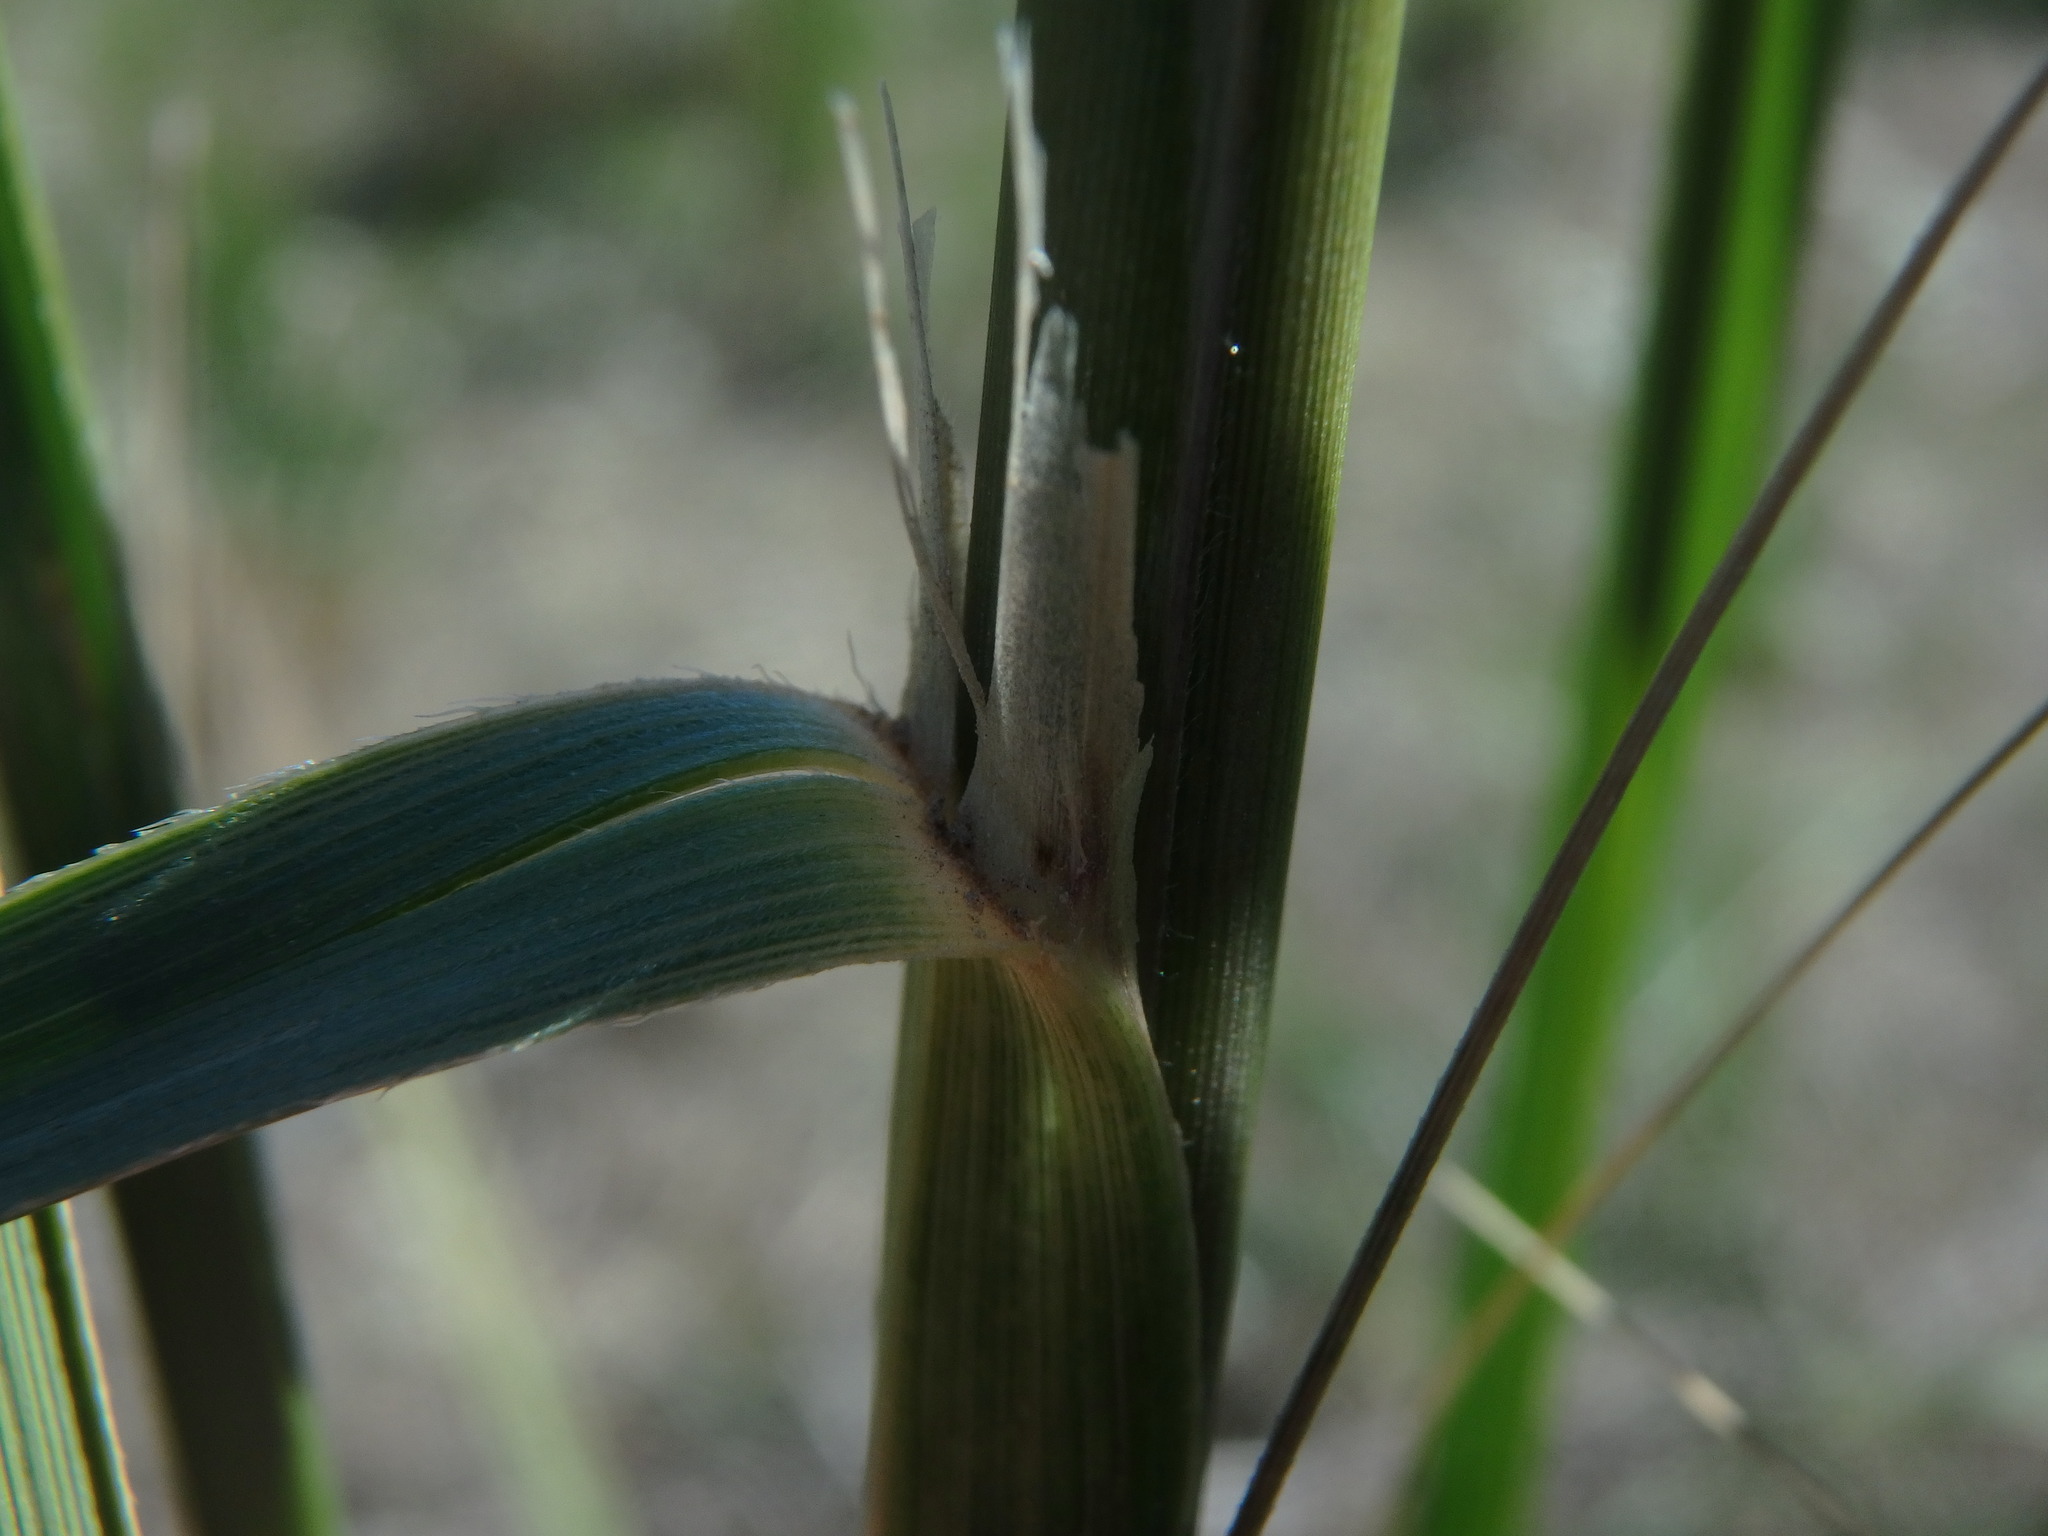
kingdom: Plantae
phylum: Tracheophyta
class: Liliopsida
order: Poales
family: Poaceae
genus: Ampelodesmos
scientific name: Ampelodesmos mauritanicus
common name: Mauritanian grass
